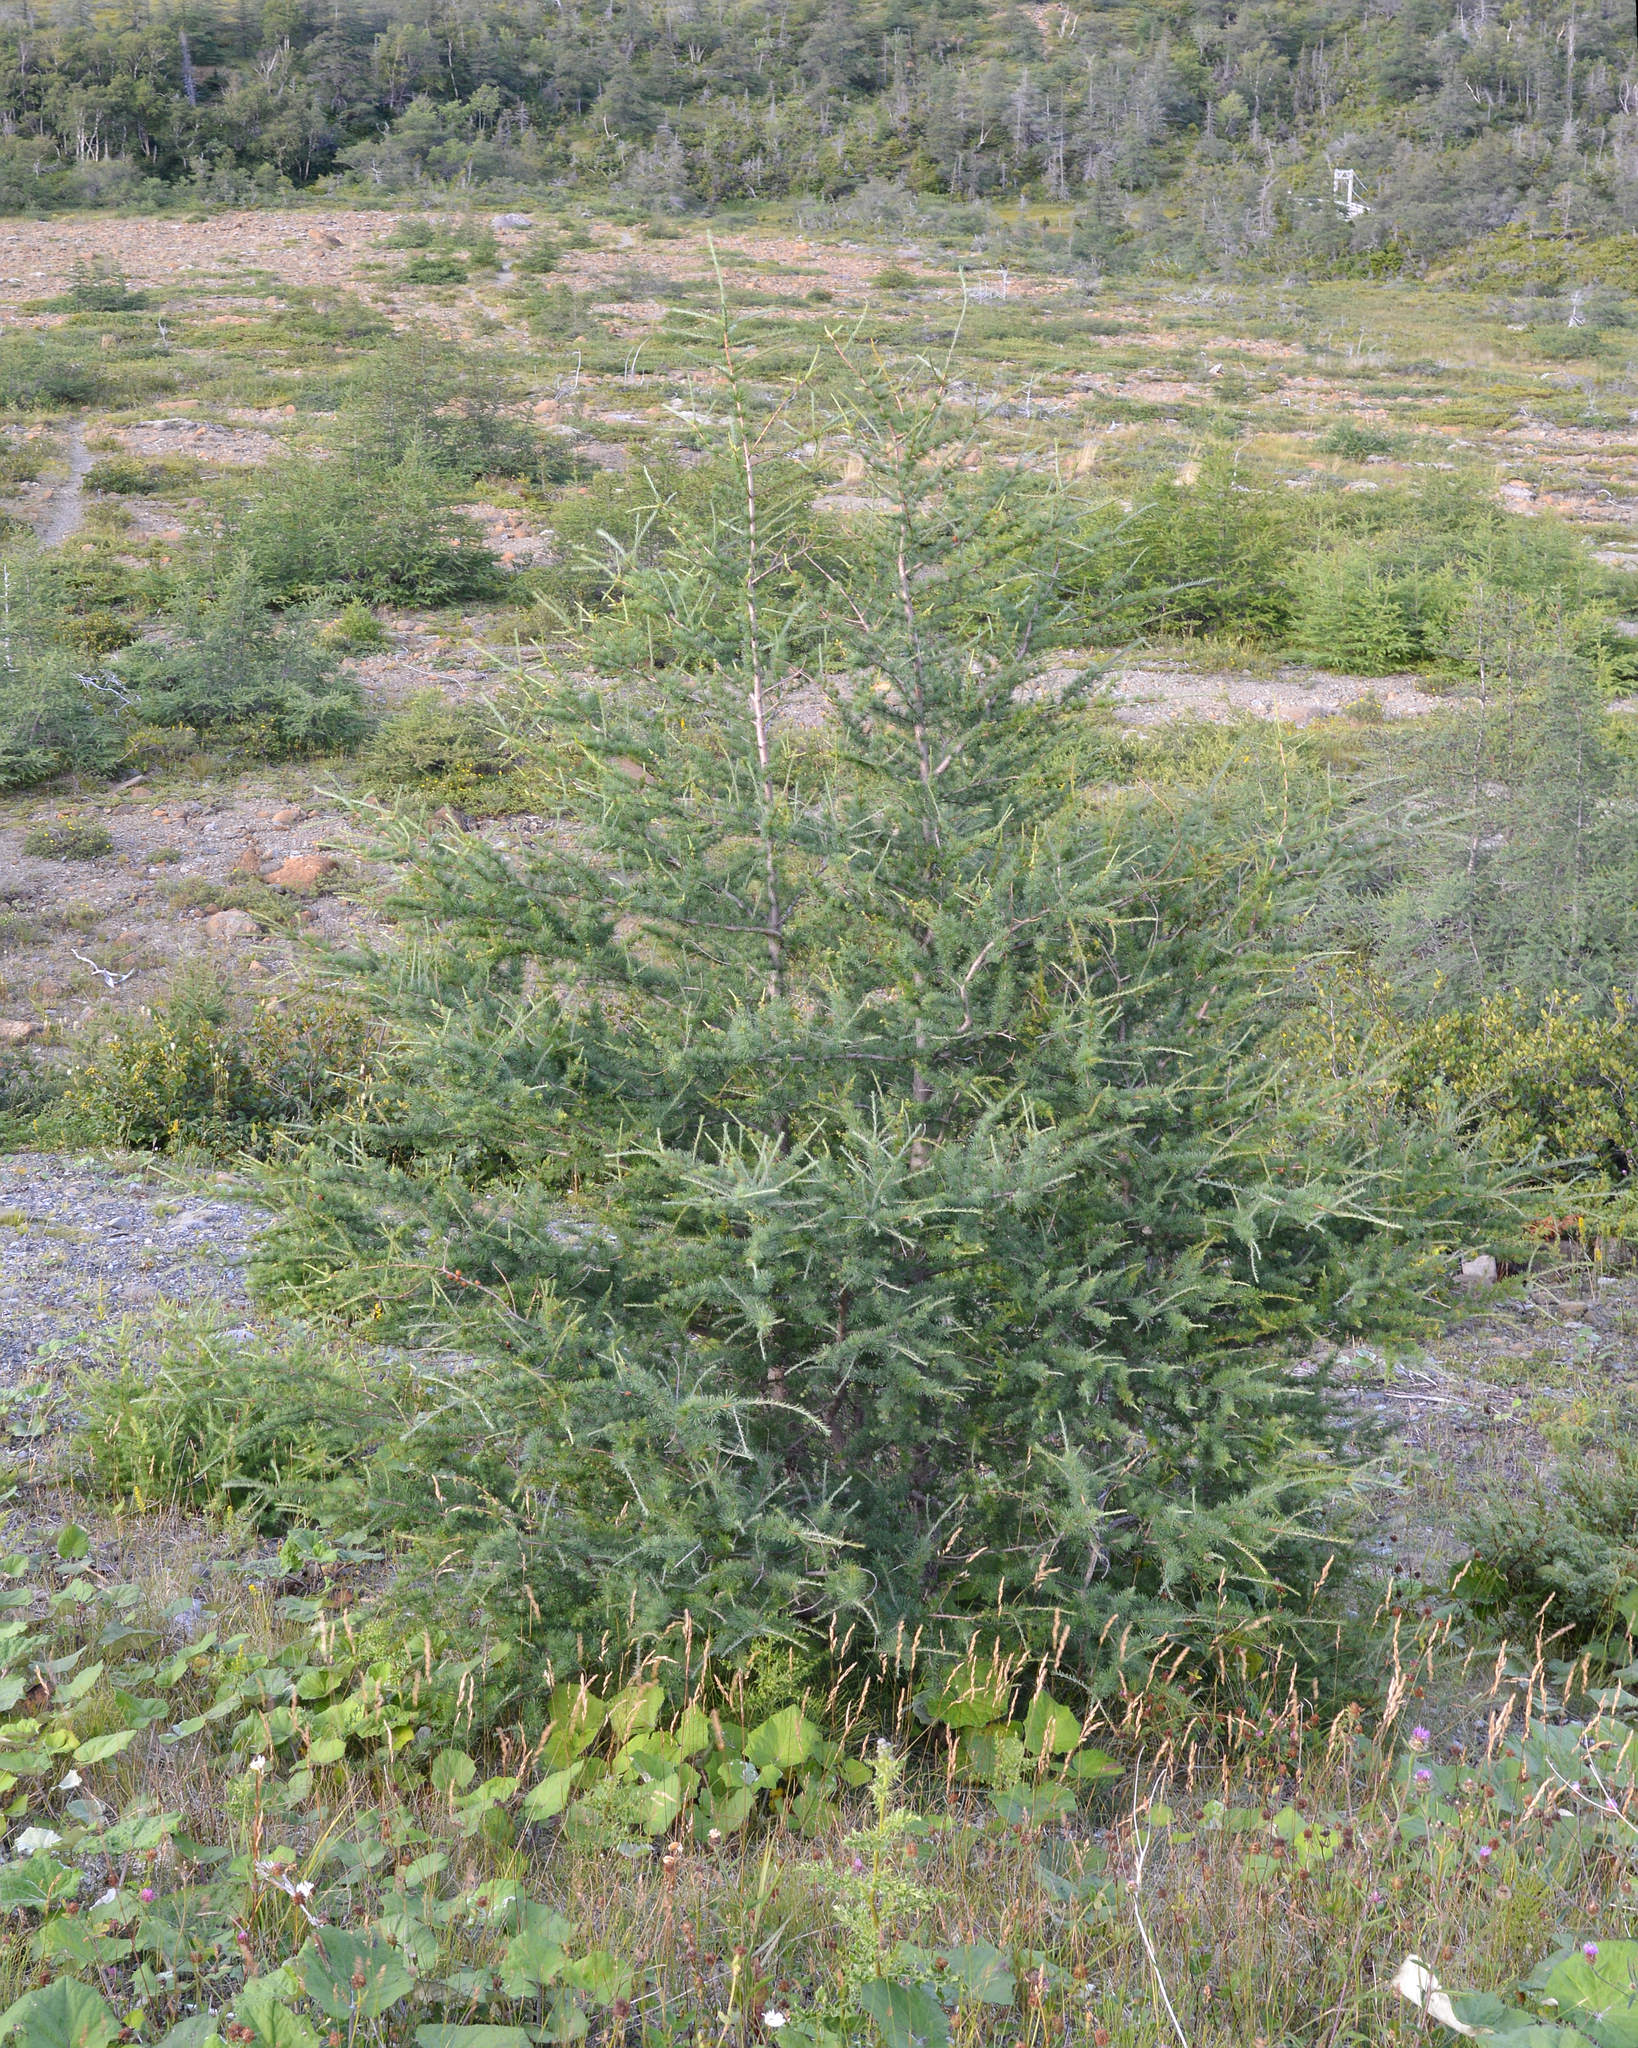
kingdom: Plantae
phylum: Tracheophyta
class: Pinopsida
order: Pinales
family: Pinaceae
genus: Larix
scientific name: Larix laricina
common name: American larch
